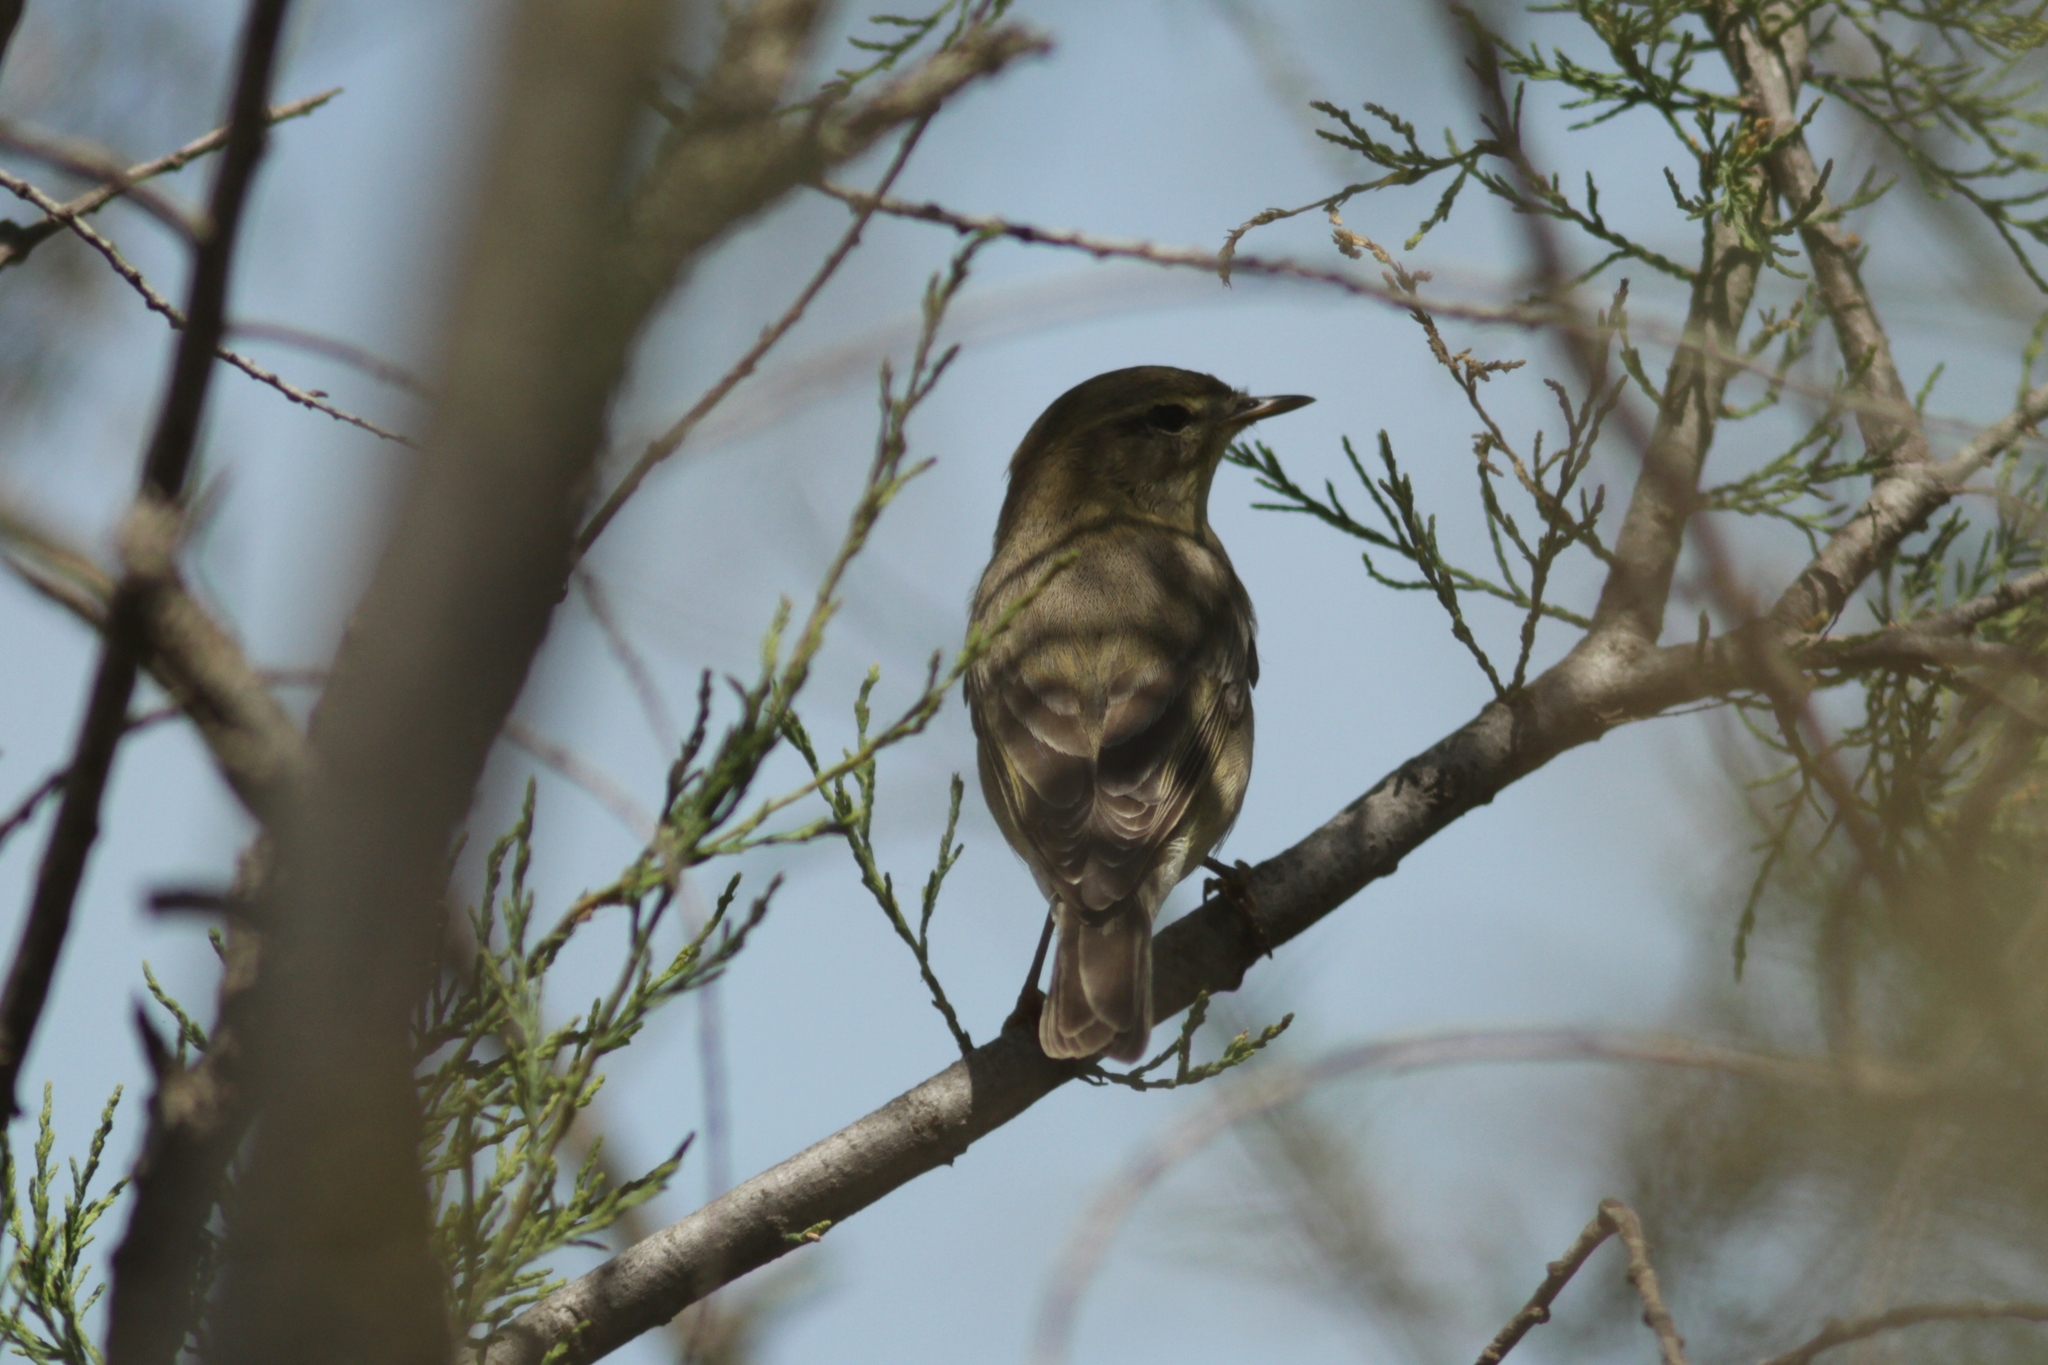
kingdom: Animalia
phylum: Chordata
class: Aves
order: Passeriformes
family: Phylloscopidae
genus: Phylloscopus
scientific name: Phylloscopus trochilus
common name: Willow warbler
